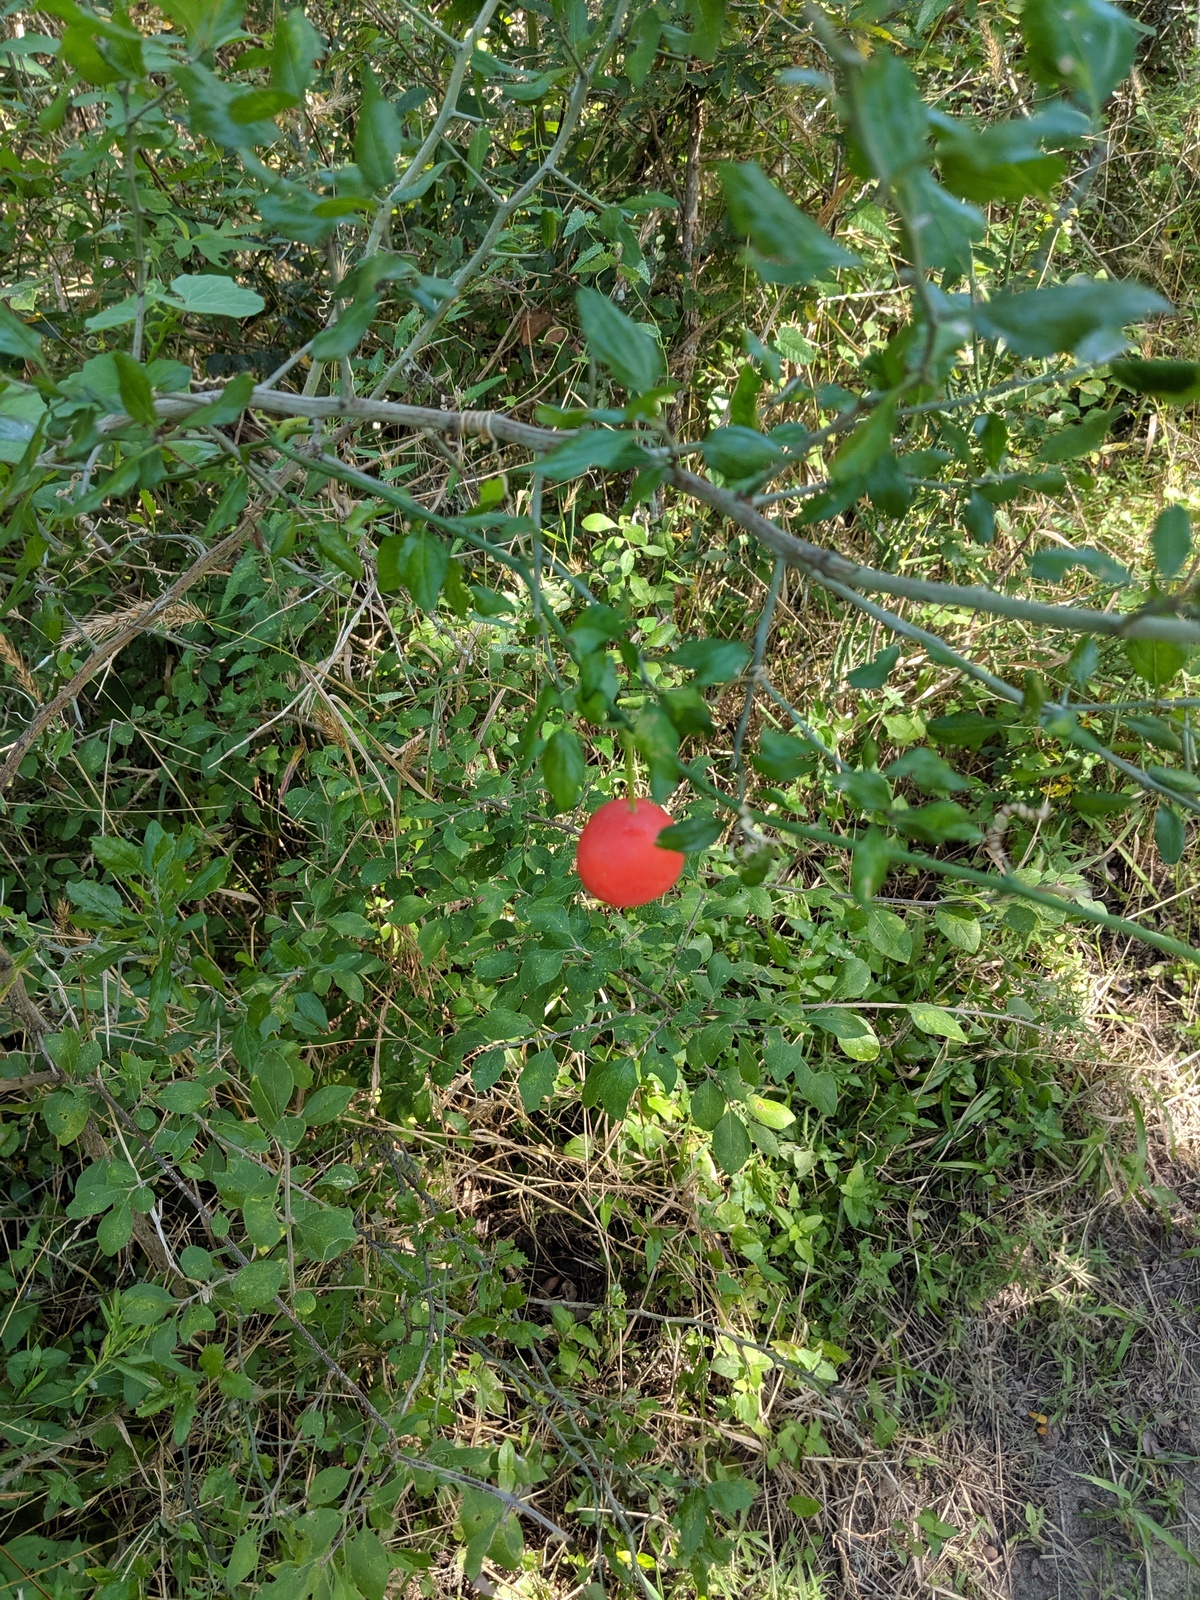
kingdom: Plantae
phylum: Tracheophyta
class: Magnoliopsida
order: Cucurbitales
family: Cucurbitaceae
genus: Ibervillea
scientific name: Ibervillea lindheimeri
